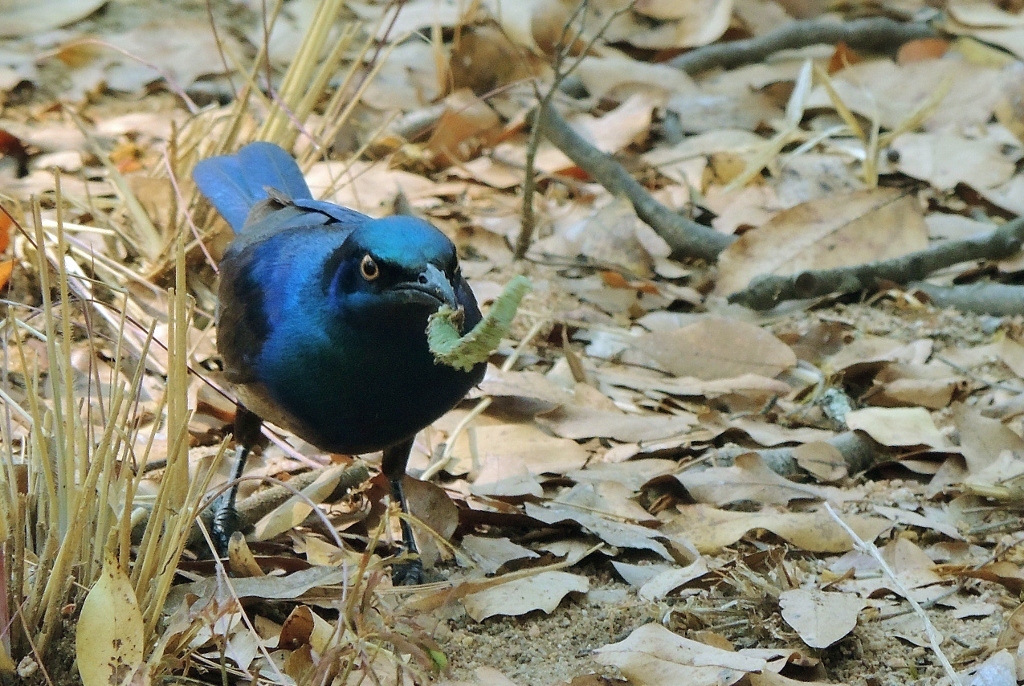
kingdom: Animalia
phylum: Chordata
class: Aves
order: Passeriformes
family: Sturnidae
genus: Lamprotornis
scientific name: Lamprotornis chloropterus
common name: Lesser blue-eared starling
